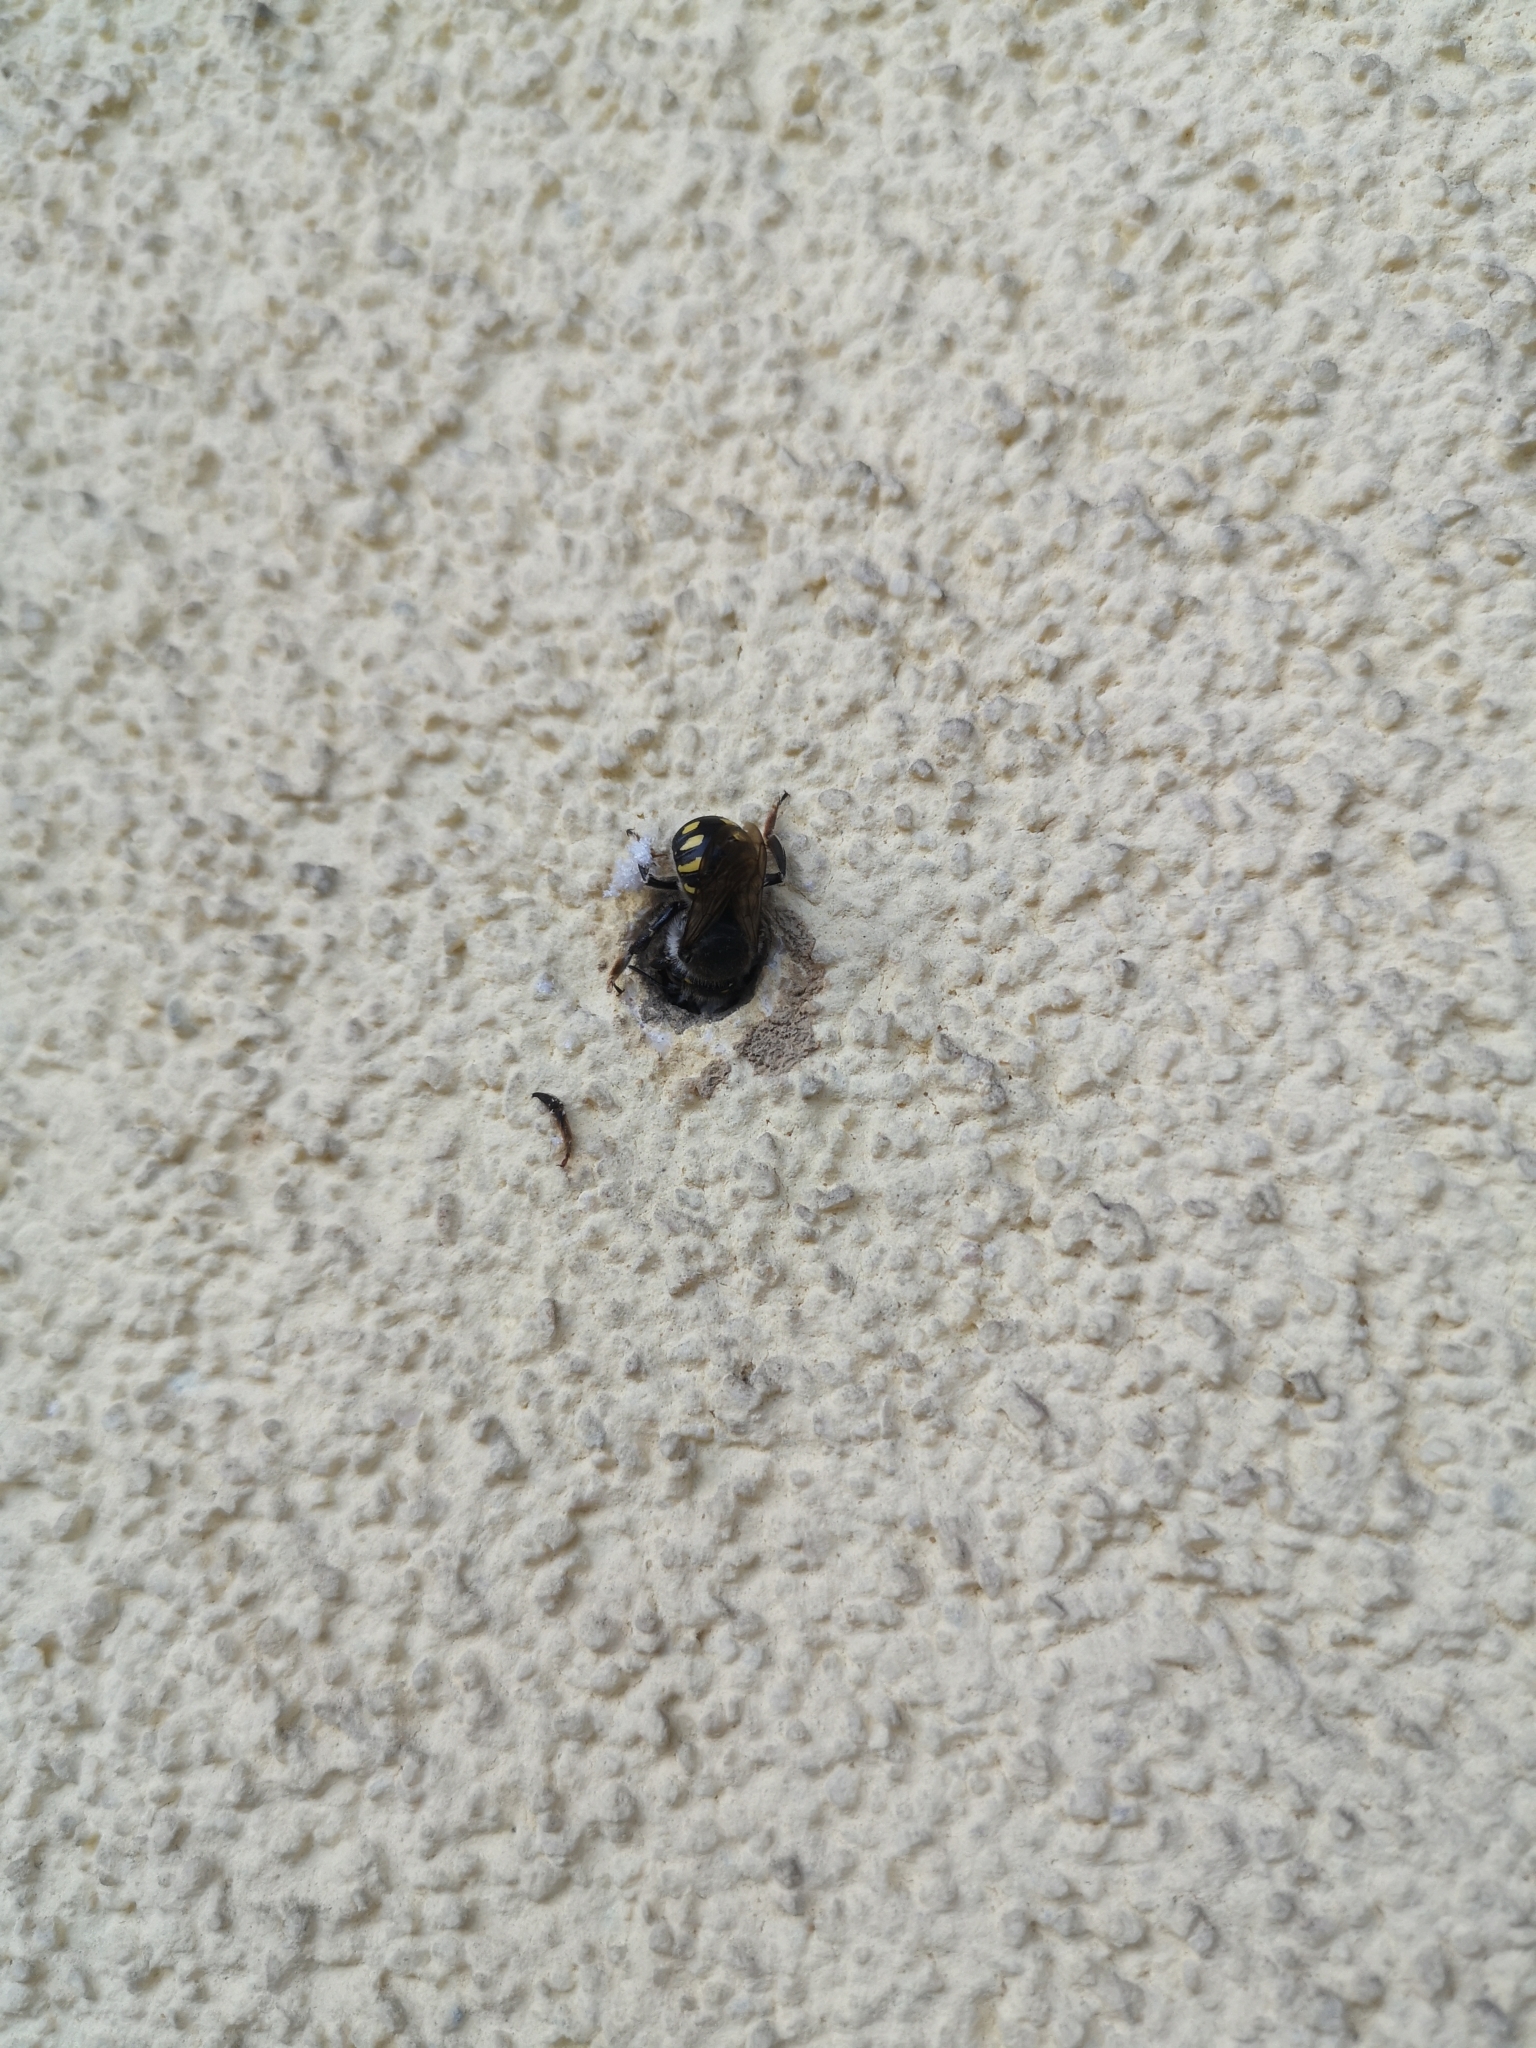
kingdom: Animalia
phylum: Arthropoda
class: Insecta
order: Hymenoptera
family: Megachilidae
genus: Anthidium
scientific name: Anthidium septemspinosum
